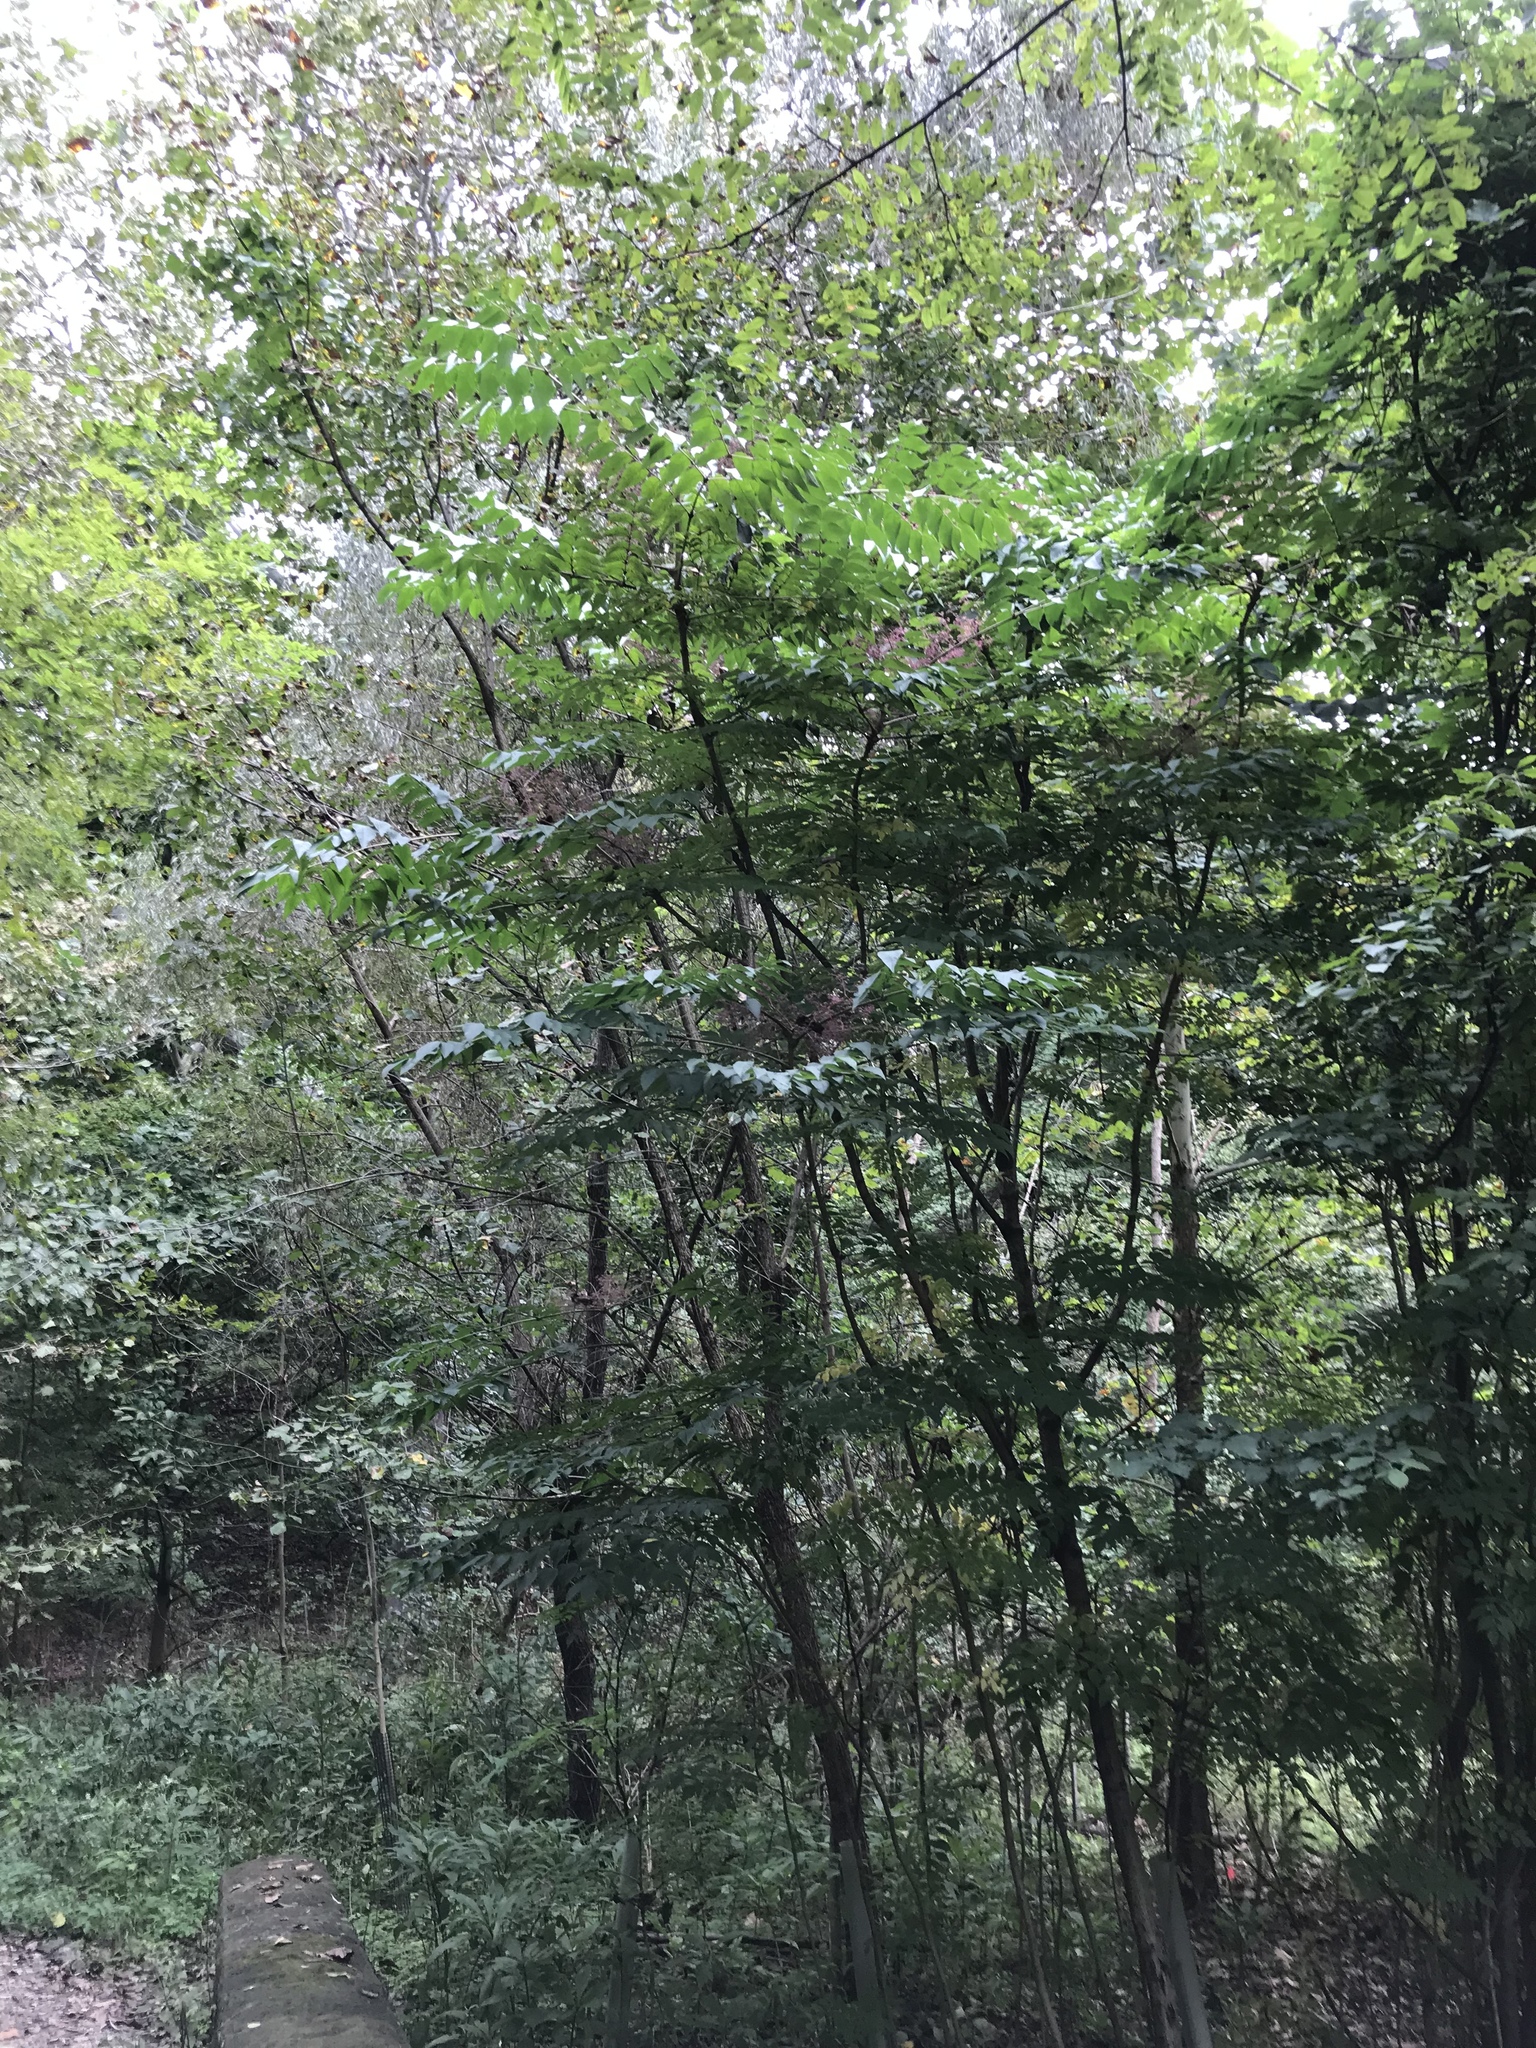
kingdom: Plantae
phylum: Tracheophyta
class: Magnoliopsida
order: Apiales
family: Araliaceae
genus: Aralia
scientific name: Aralia spinosa
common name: Hercules'-club
